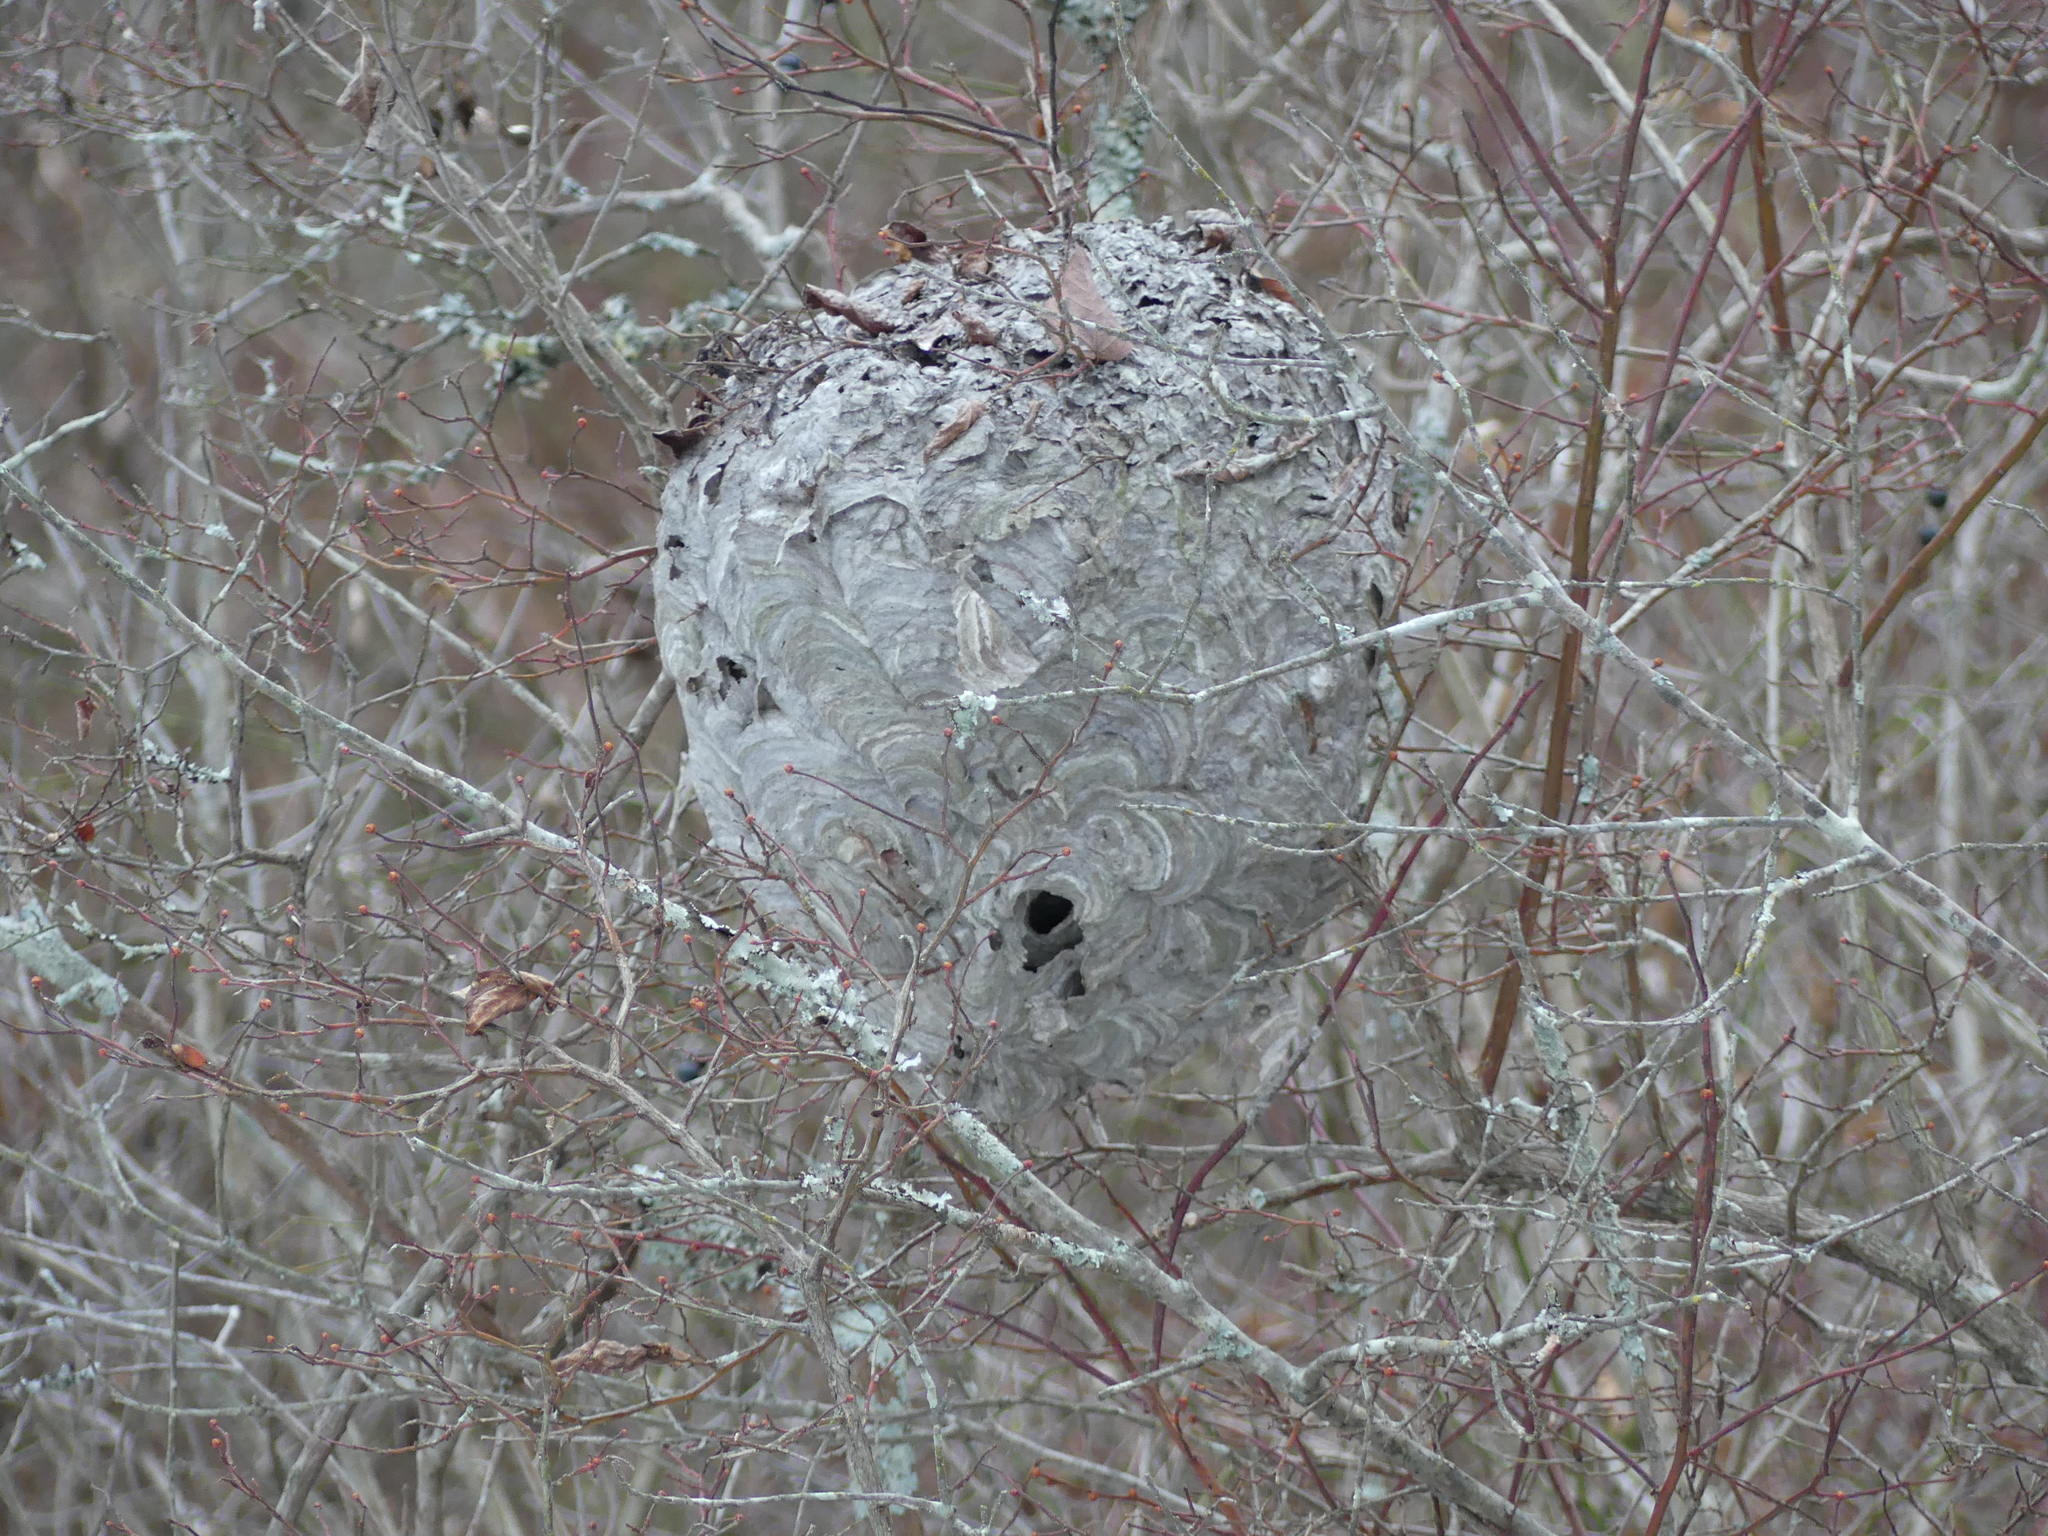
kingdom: Animalia
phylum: Arthropoda
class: Insecta
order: Hymenoptera
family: Vespidae
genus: Dolichovespula
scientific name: Dolichovespula maculata
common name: Bald-faced hornet
